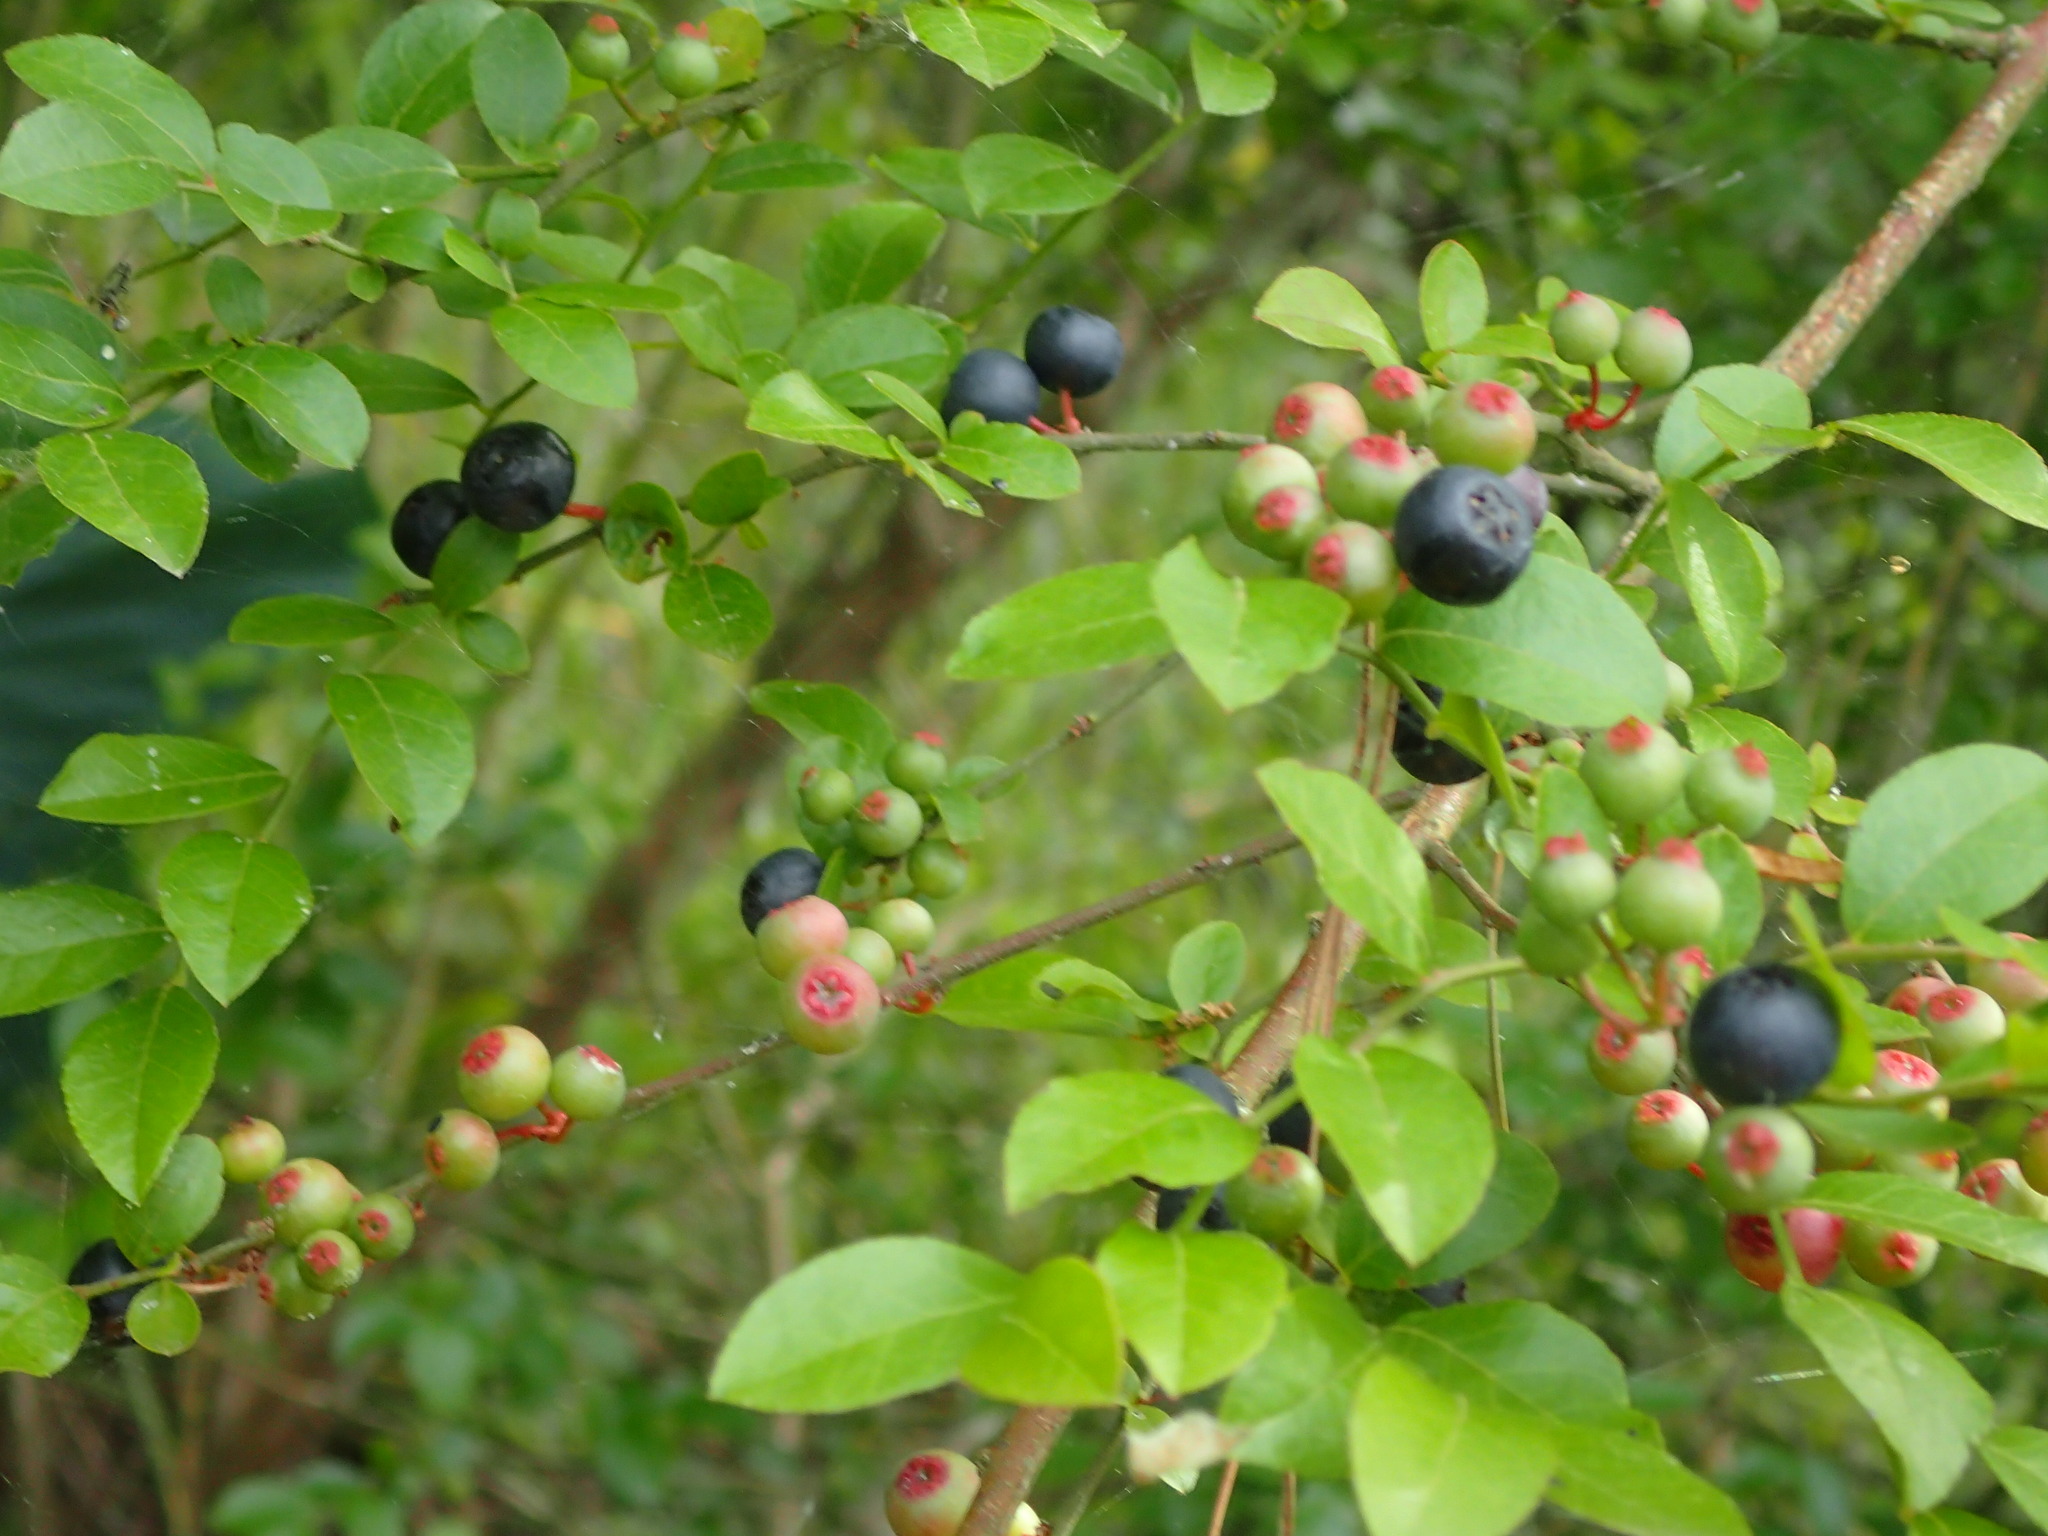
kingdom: Plantae
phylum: Tracheophyta
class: Magnoliopsida
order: Ericales
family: Ericaceae
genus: Vaccinium
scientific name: Vaccinium corymbosum
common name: Blueberry
